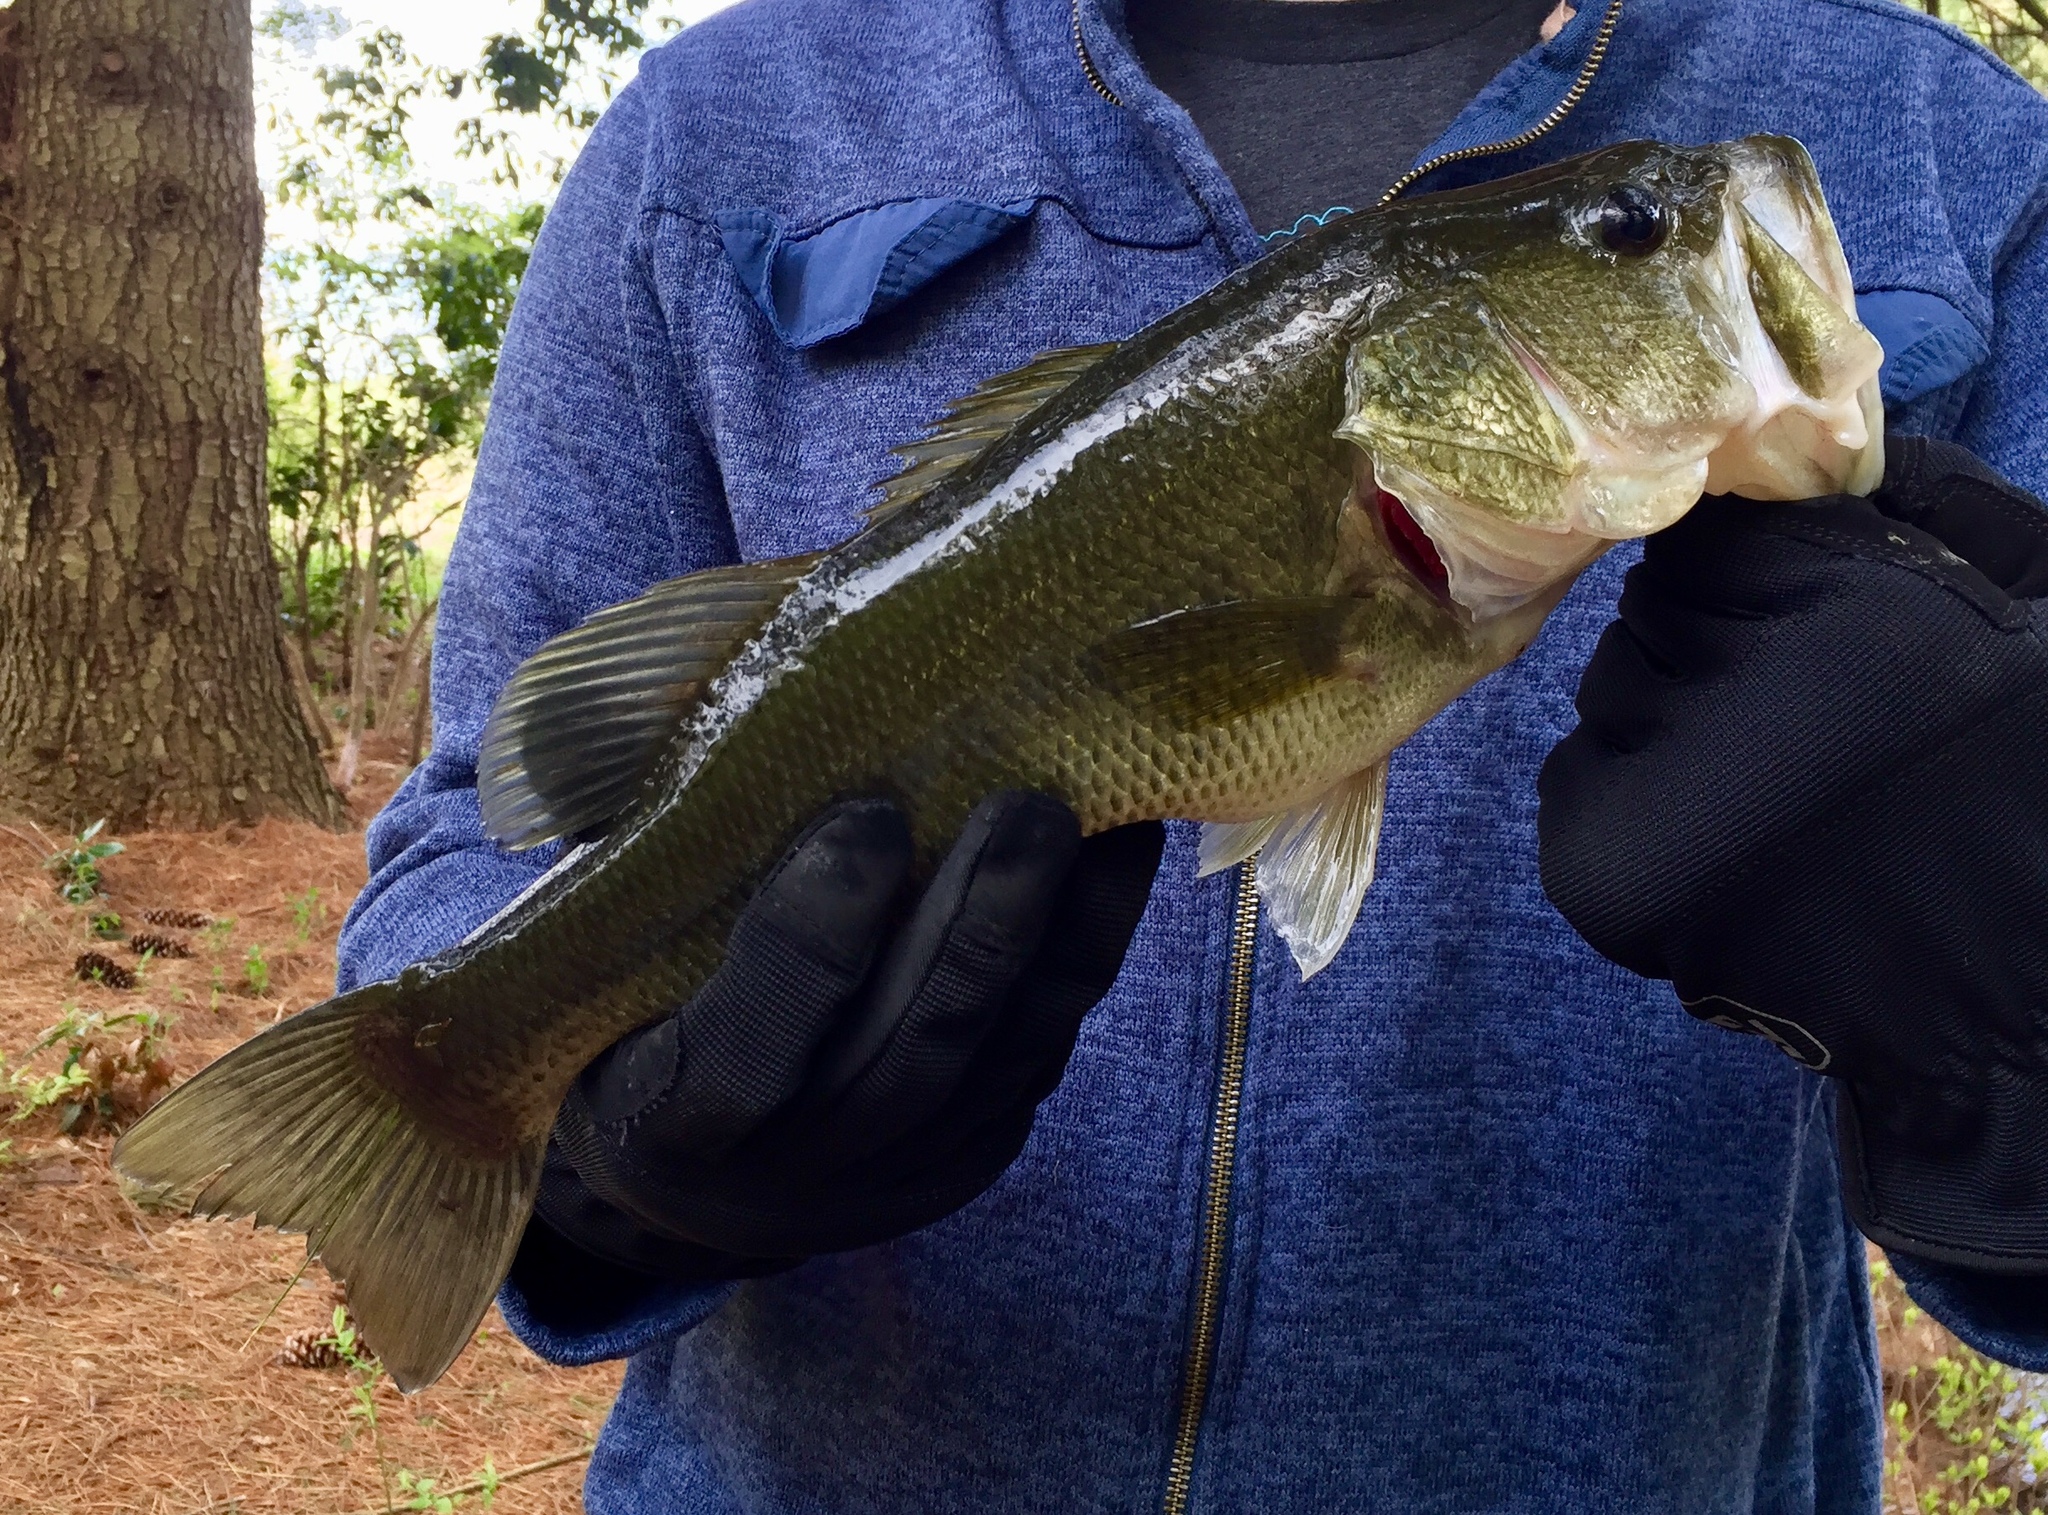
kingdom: Animalia
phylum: Chordata
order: Perciformes
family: Centrarchidae
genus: Micropterus
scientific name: Micropterus
